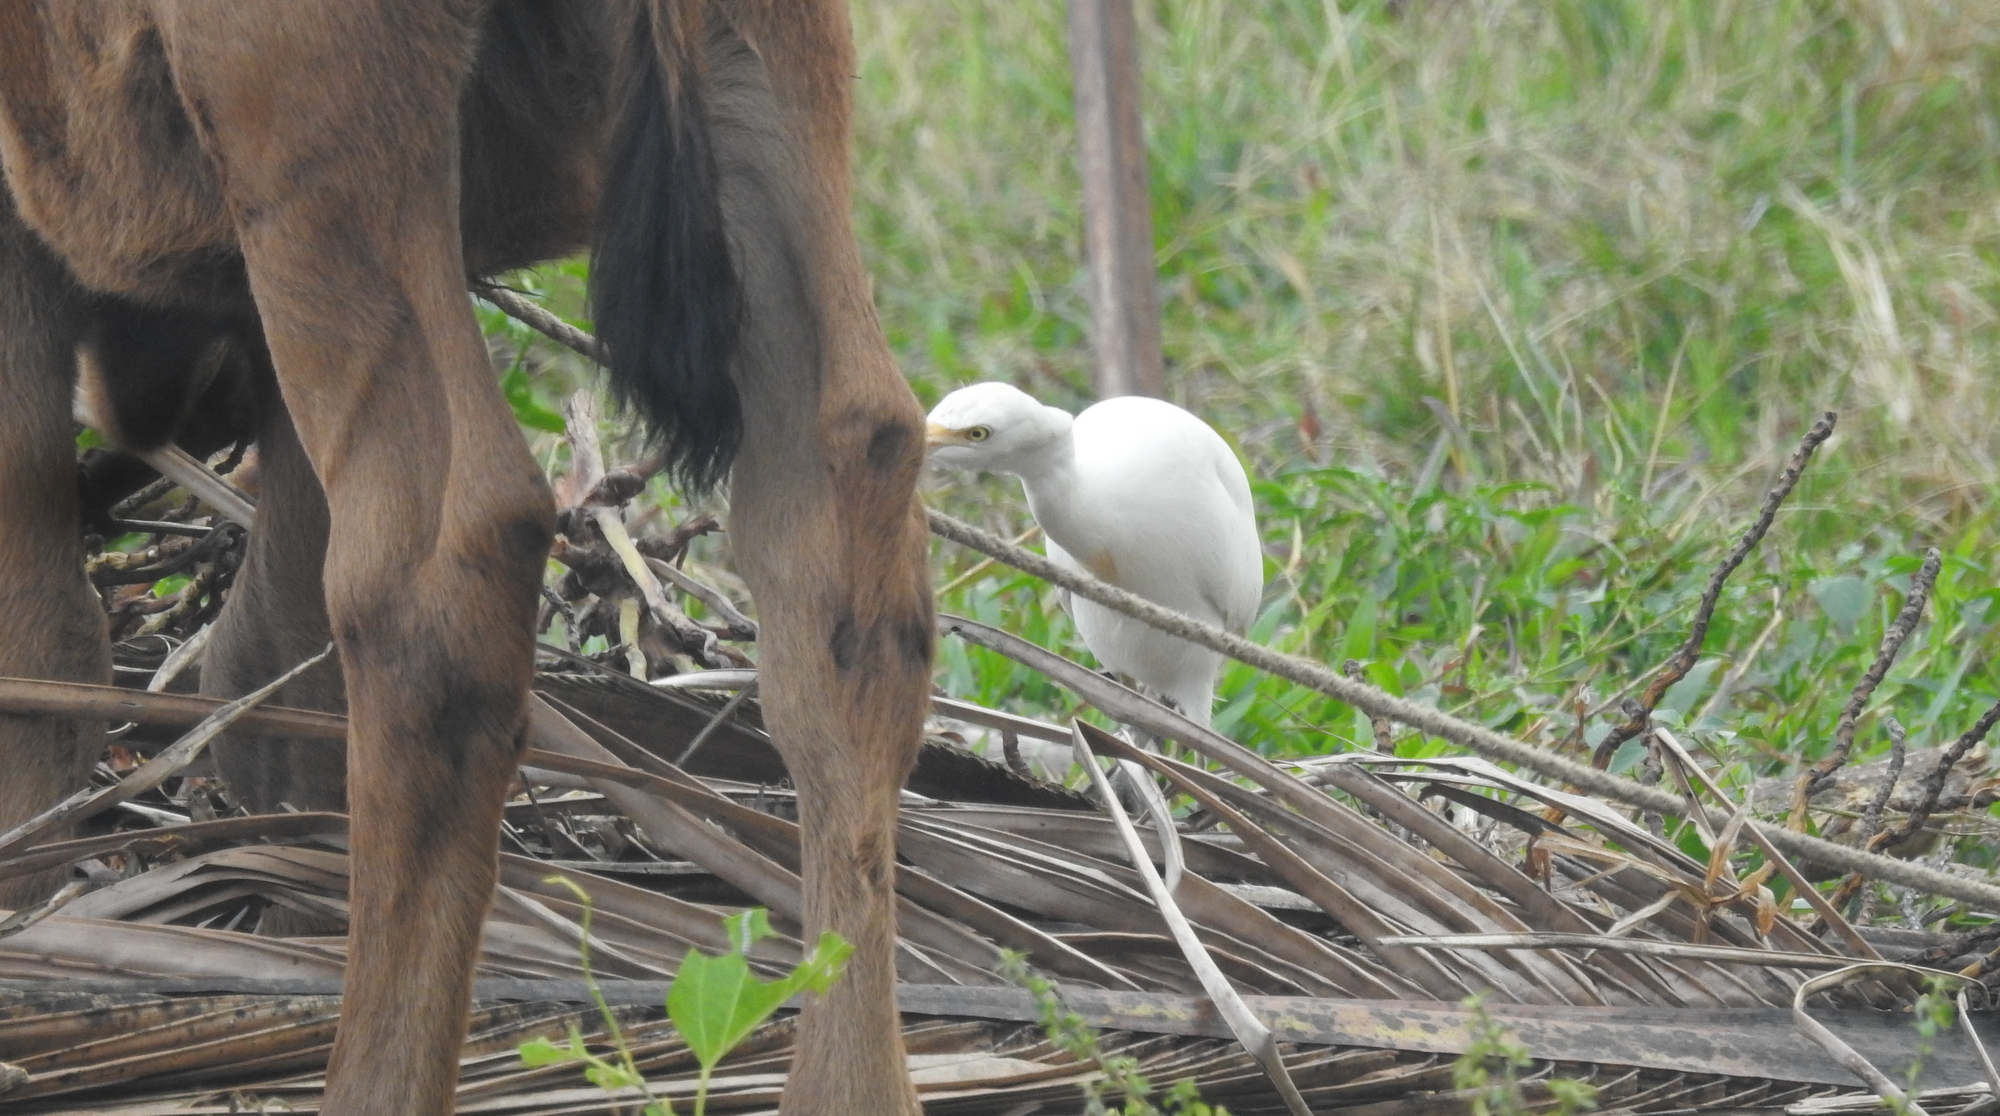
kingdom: Animalia
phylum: Chordata
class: Aves
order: Pelecaniformes
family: Ardeidae
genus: Bubulcus
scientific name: Bubulcus coromandus
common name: Eastern cattle egret
